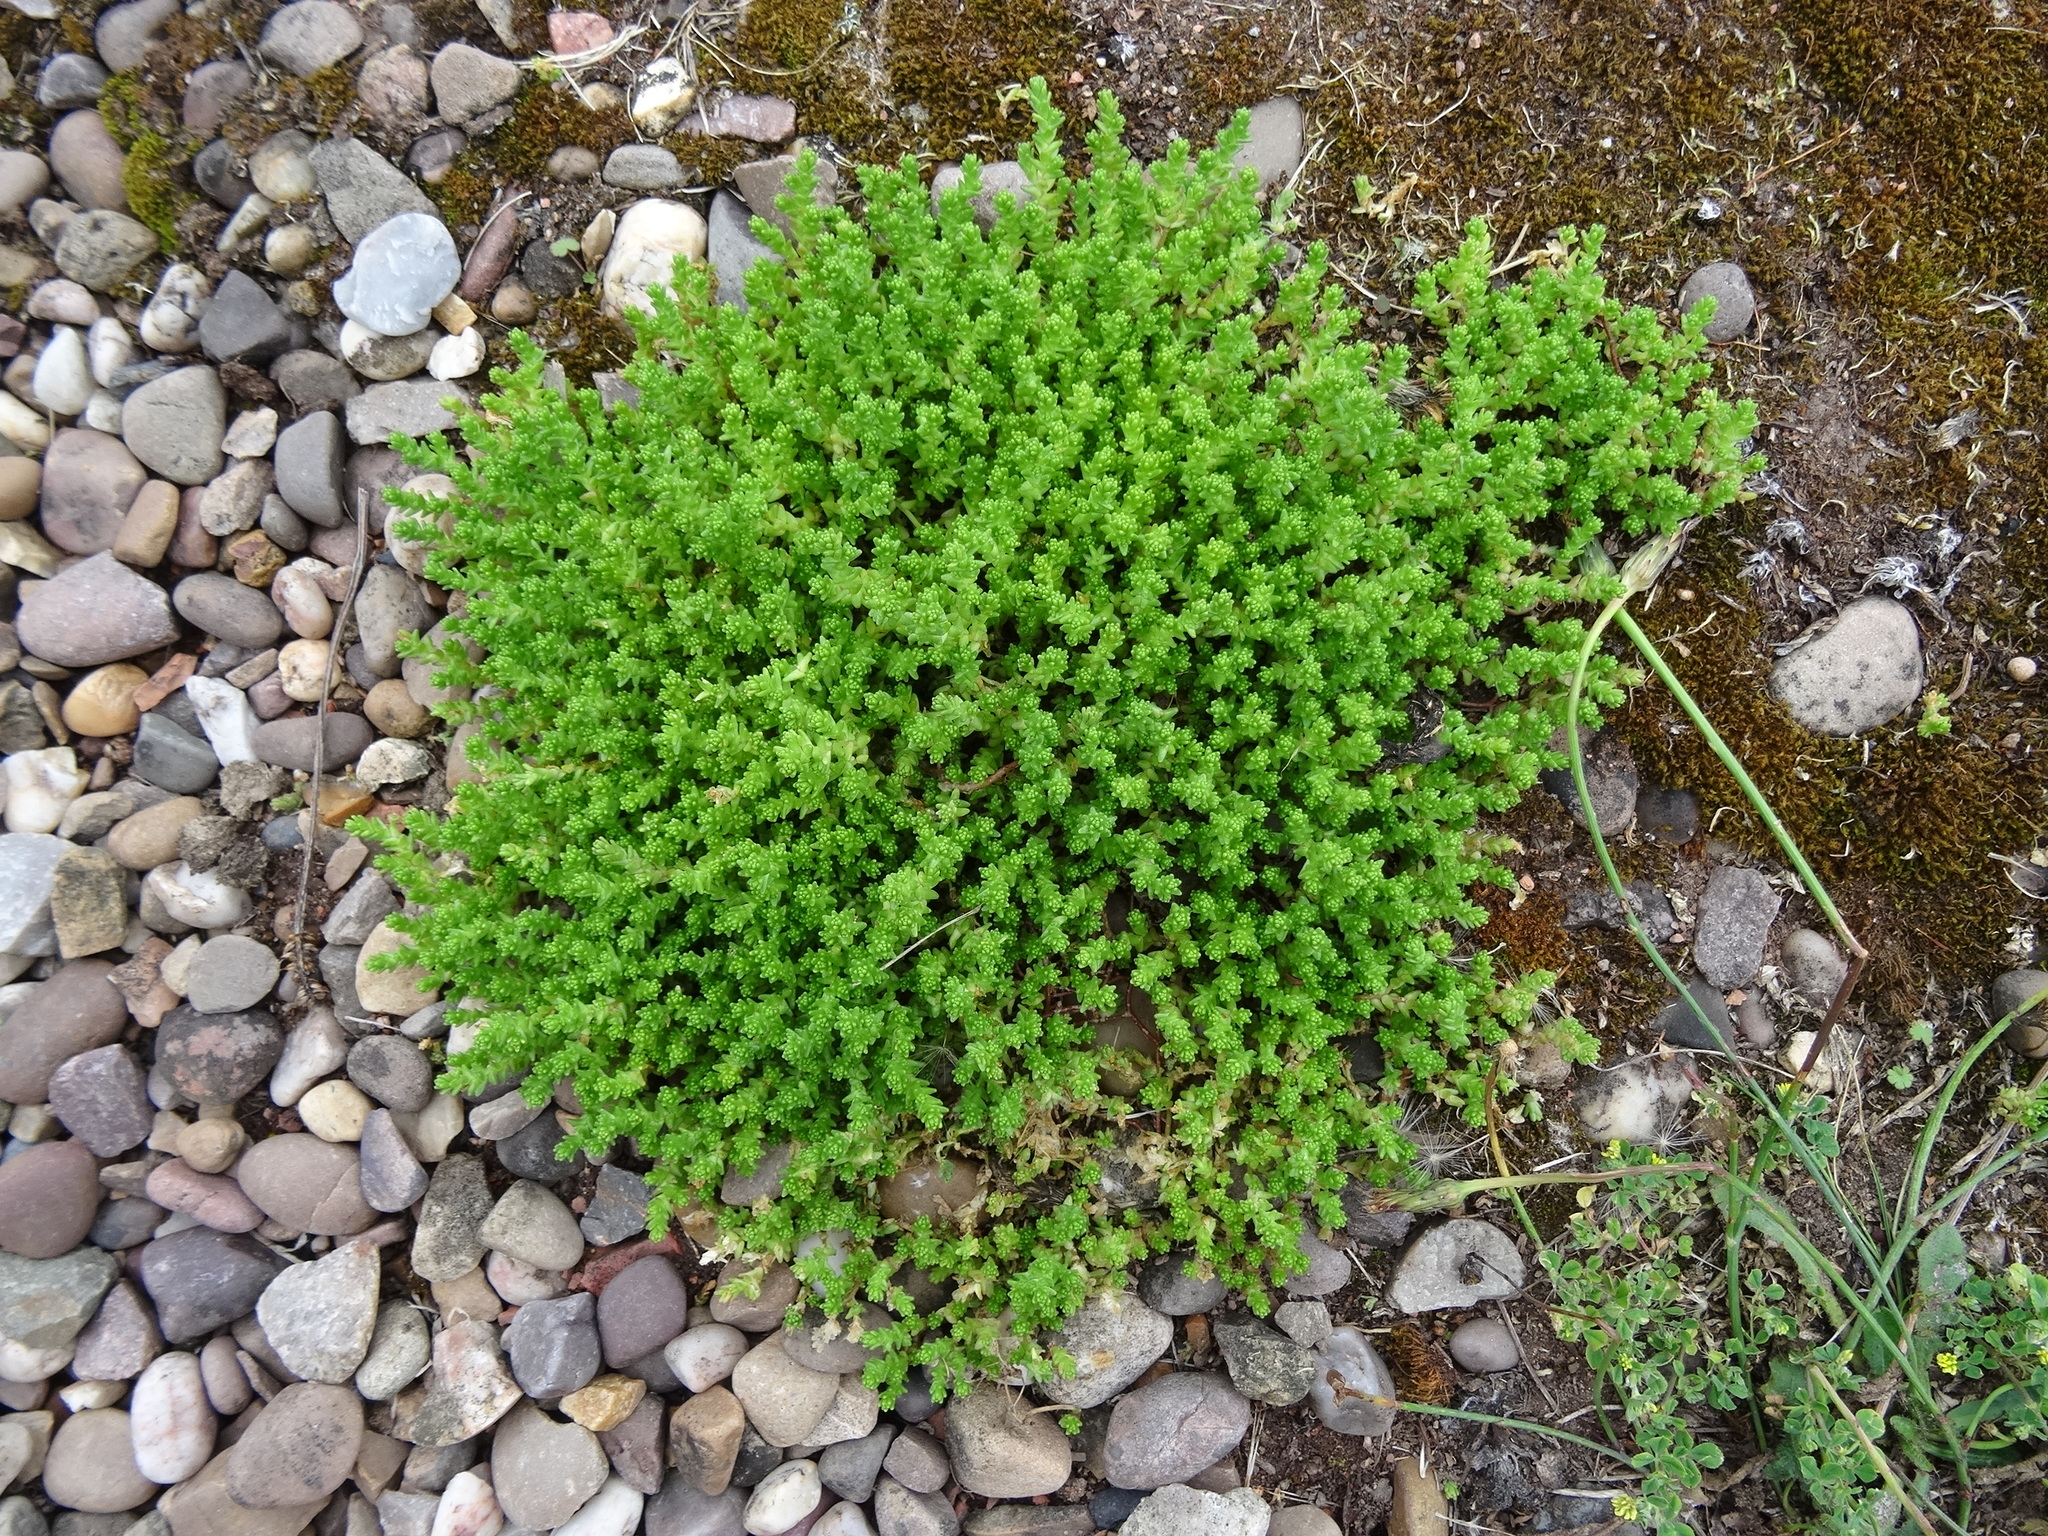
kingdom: Plantae
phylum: Tracheophyta
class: Magnoliopsida
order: Saxifragales
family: Crassulaceae
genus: Sedum
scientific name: Sedum acre
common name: Biting stonecrop
